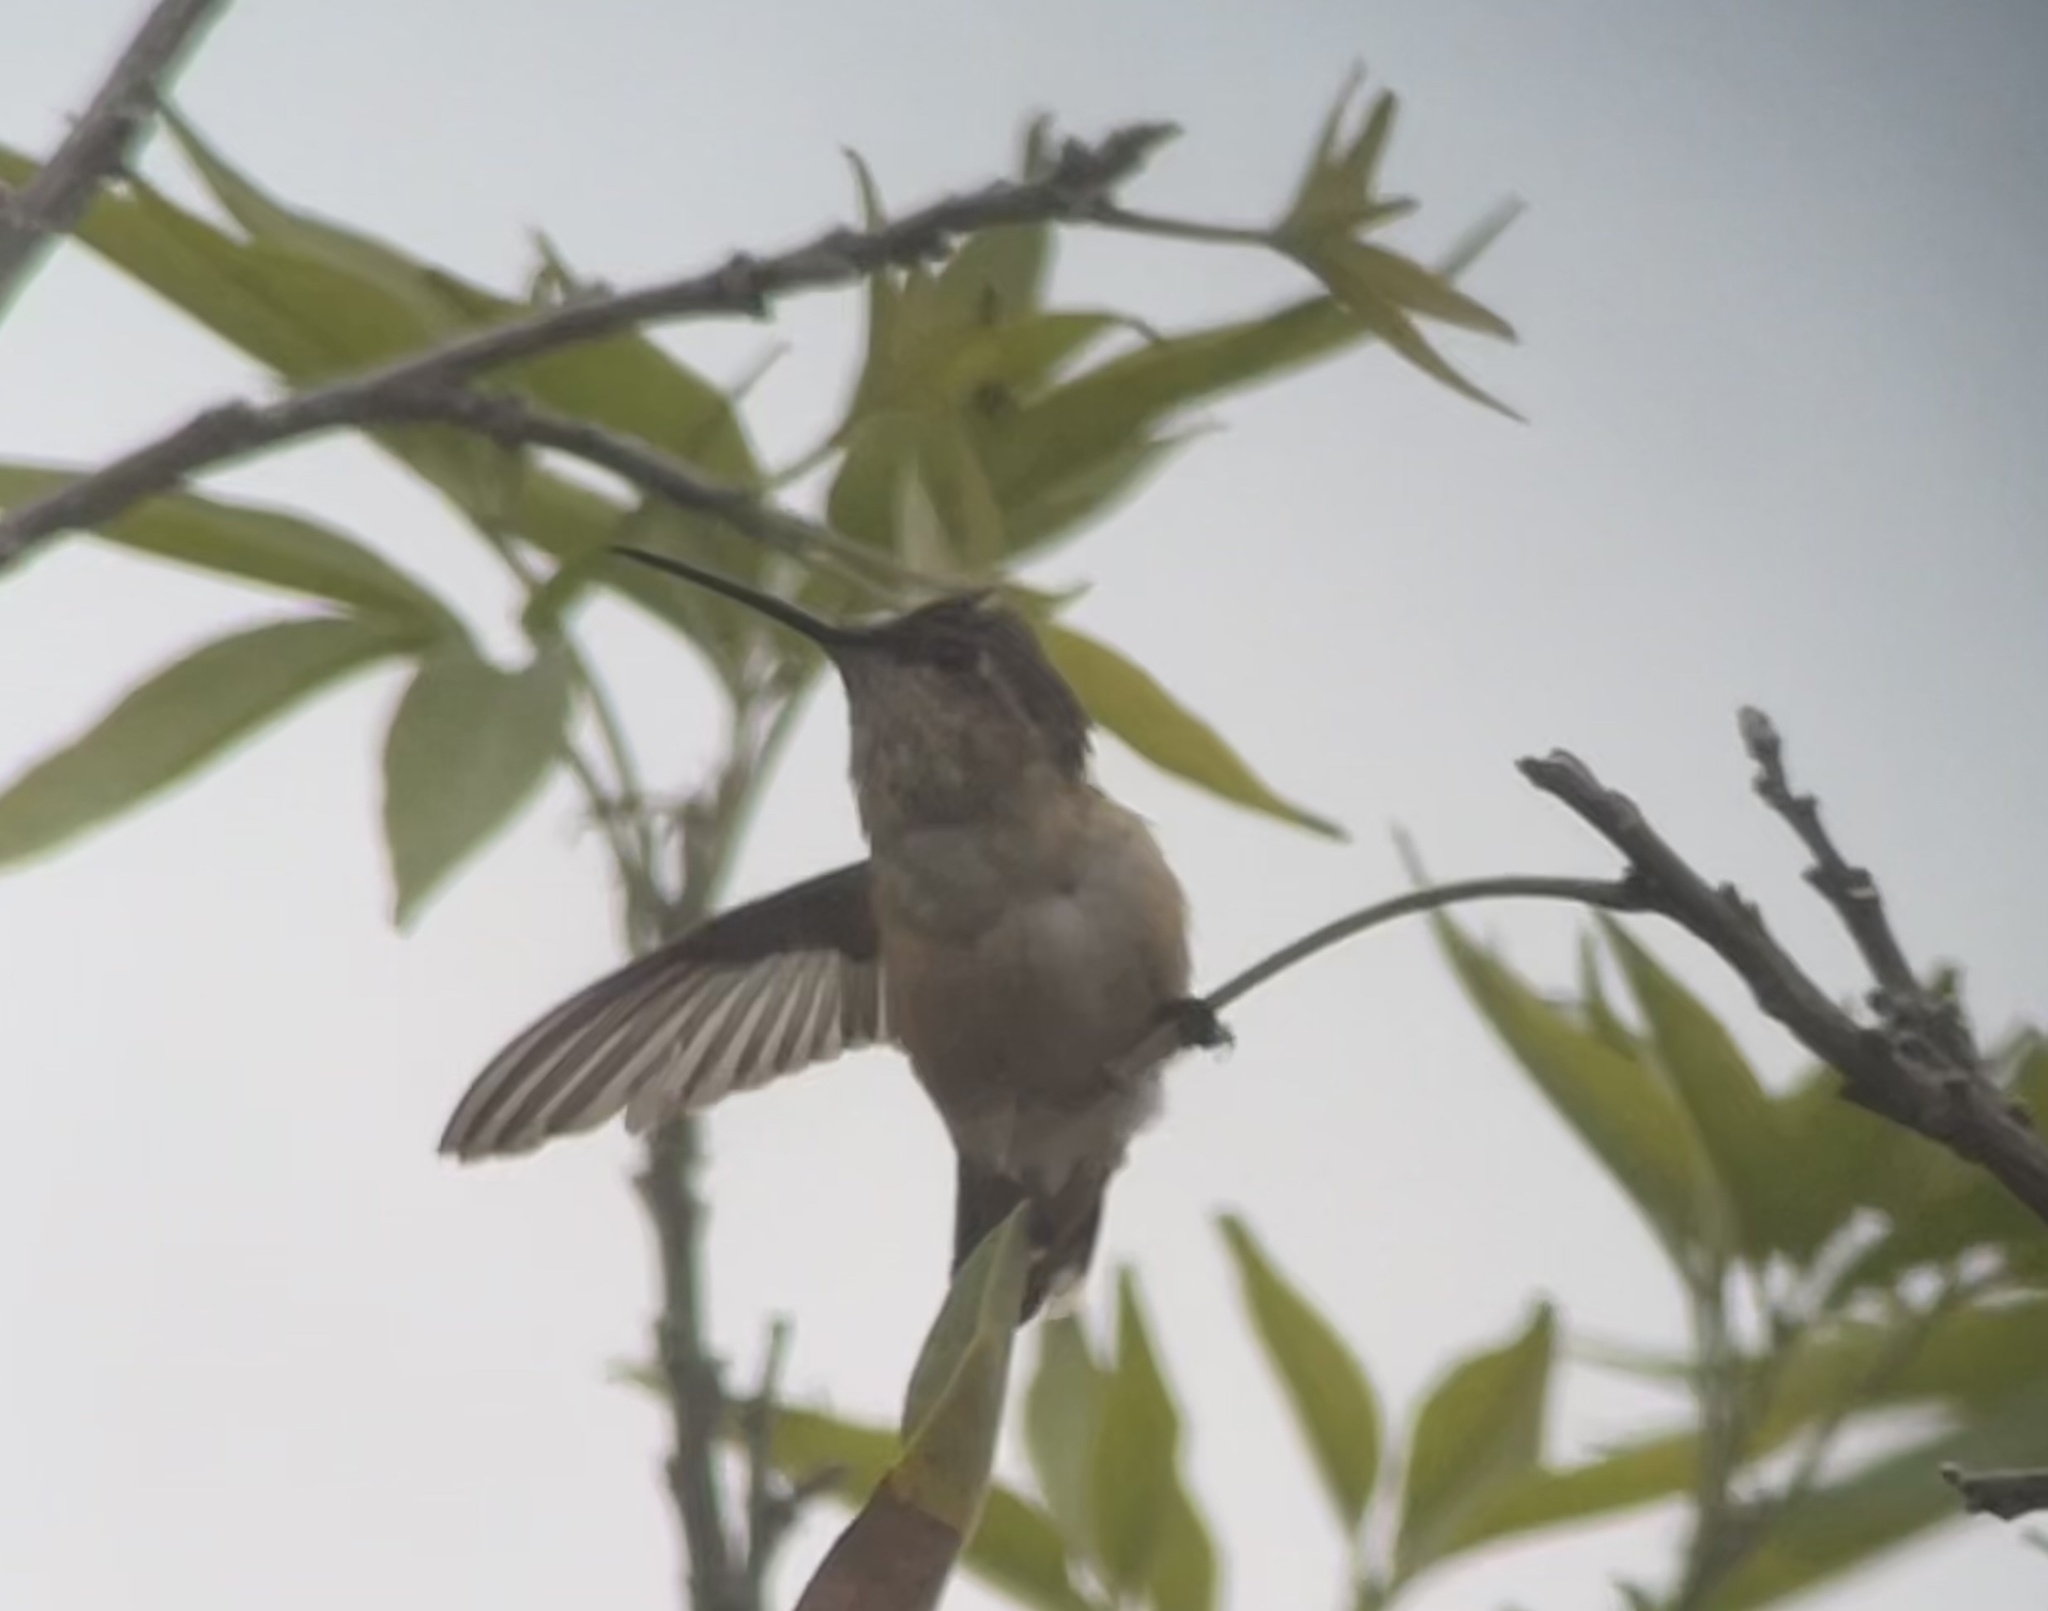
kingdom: Animalia
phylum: Chordata
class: Aves
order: Apodiformes
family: Trochilidae
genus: Selasphorus
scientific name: Selasphorus sasin
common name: Allen's hummingbird
